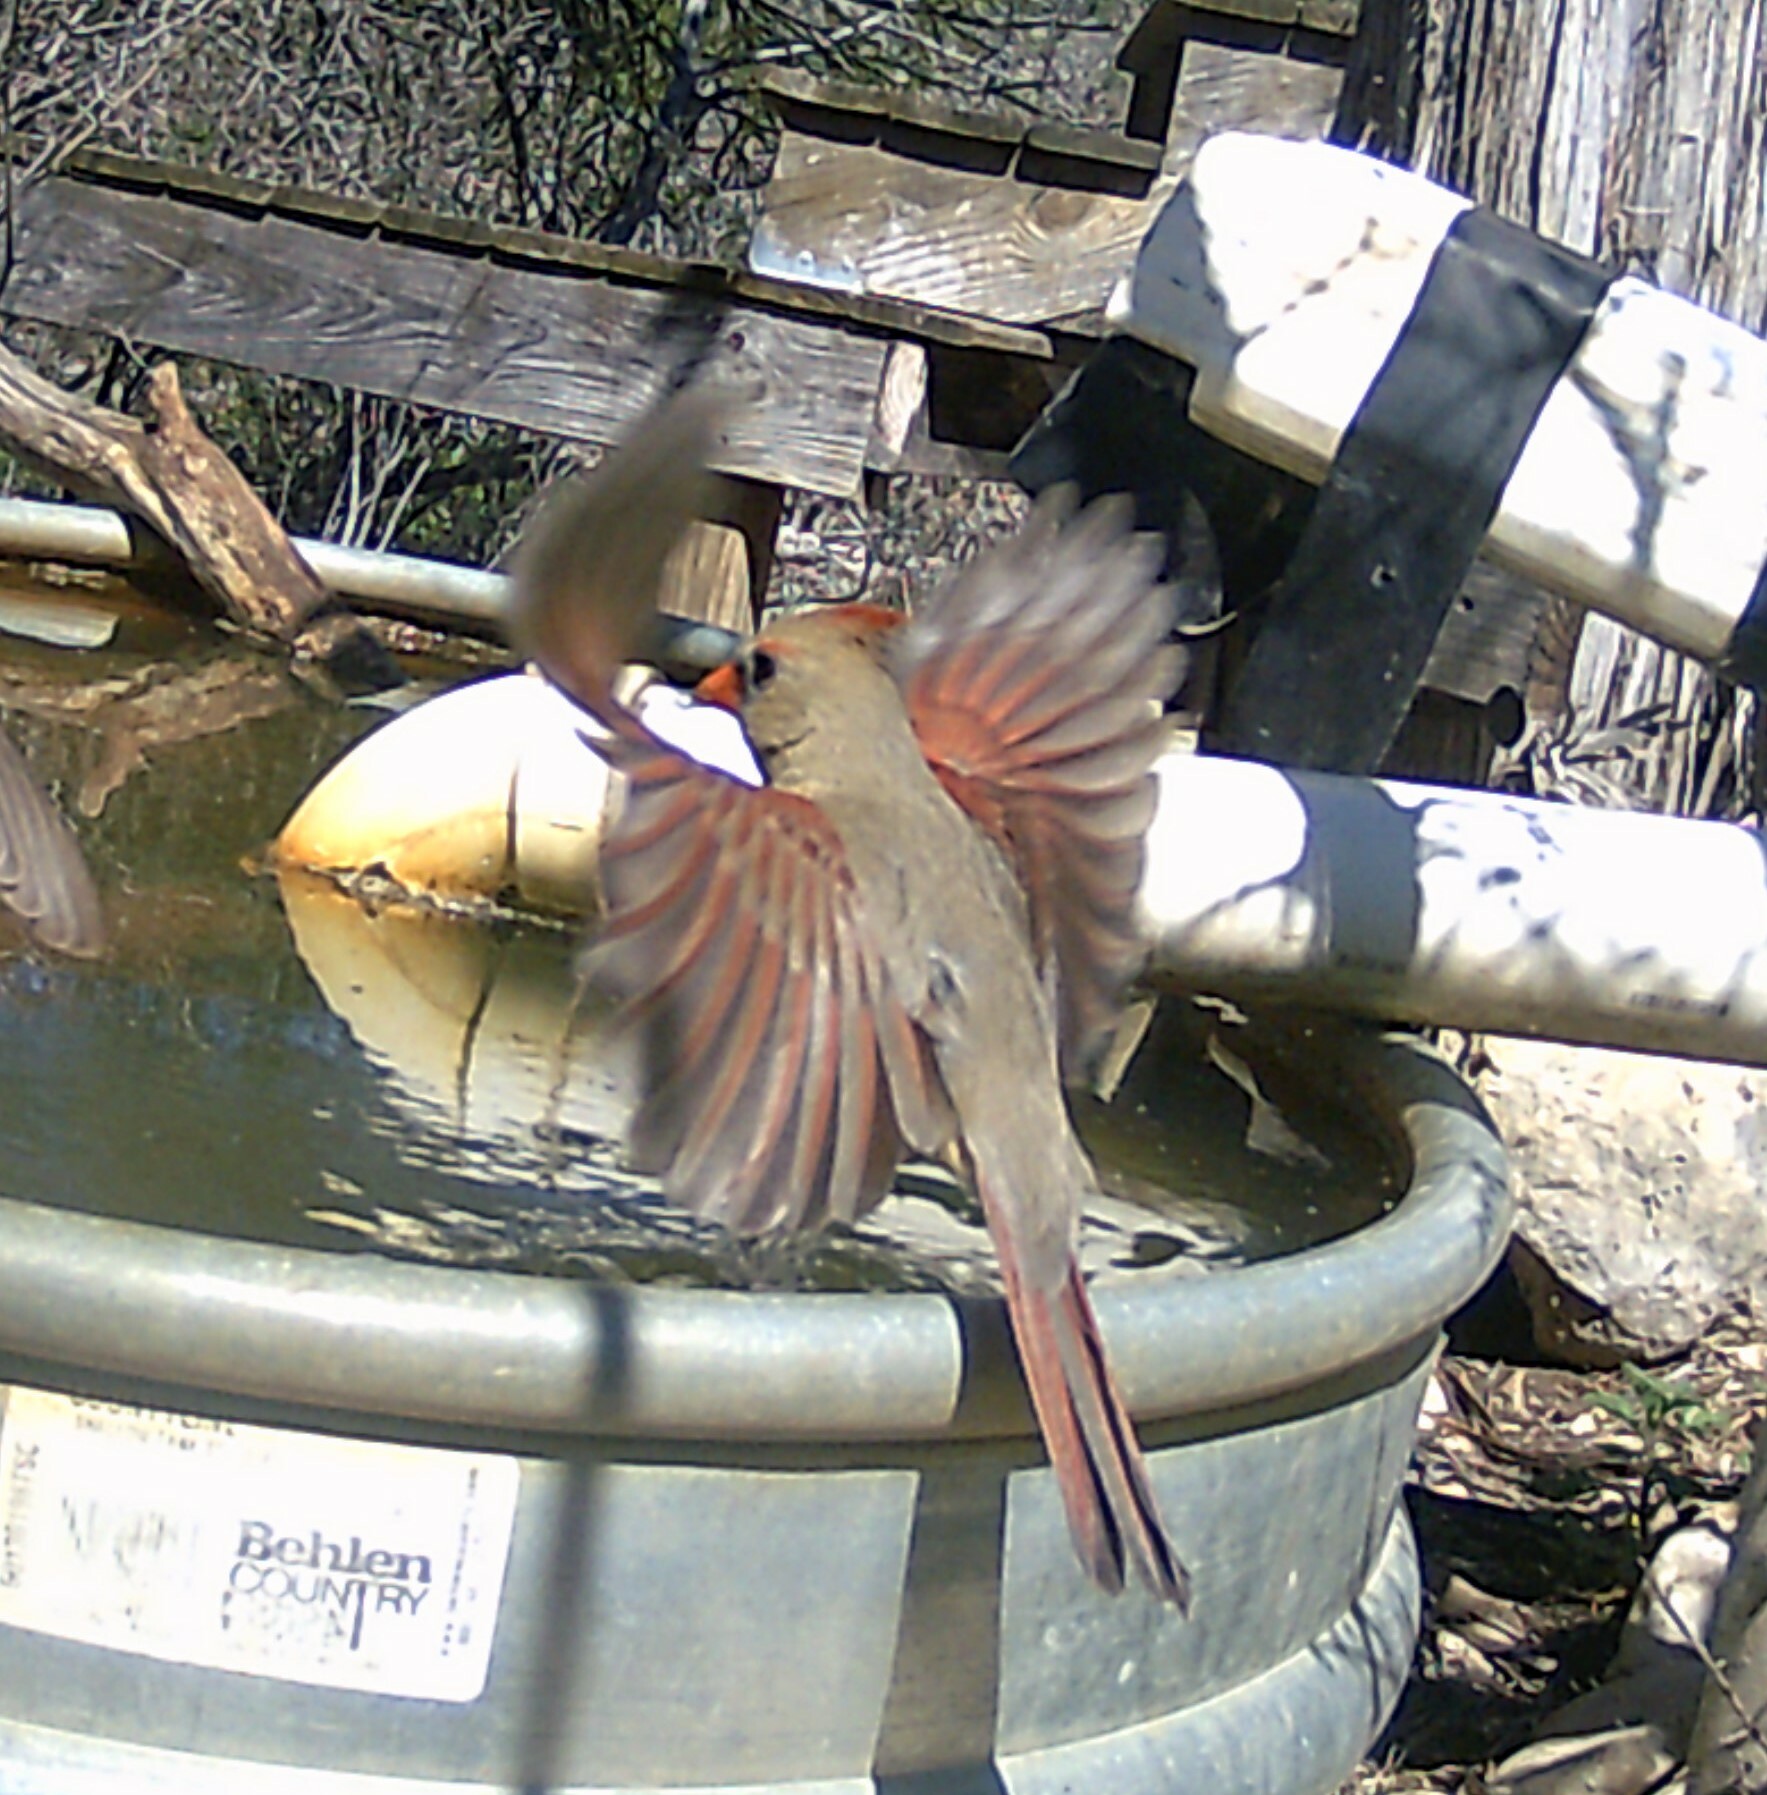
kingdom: Animalia
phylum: Chordata
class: Aves
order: Passeriformes
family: Cardinalidae
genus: Cardinalis
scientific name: Cardinalis cardinalis
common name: Northern cardinal
